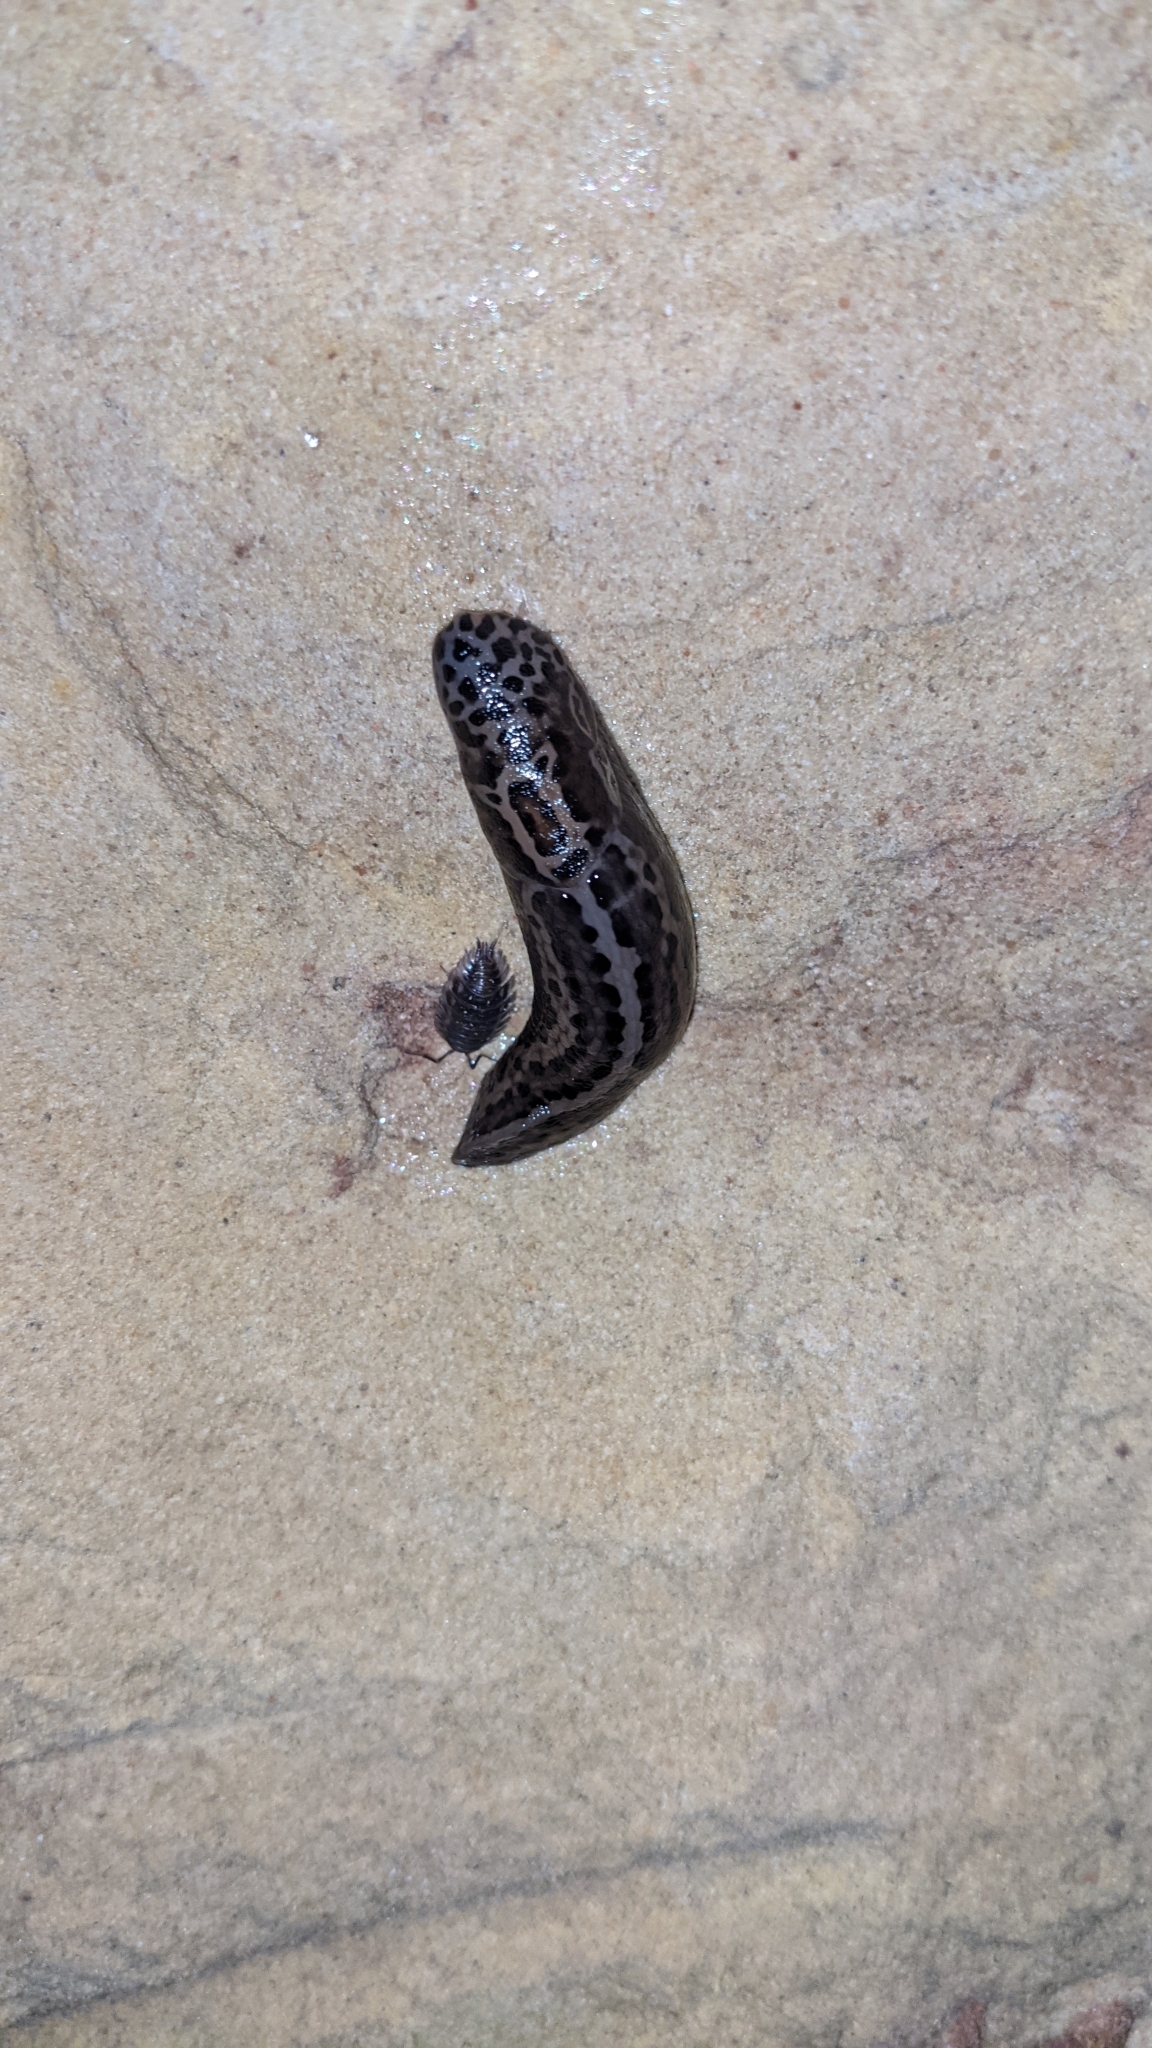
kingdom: Animalia
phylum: Mollusca
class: Gastropoda
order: Stylommatophora
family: Limacidae
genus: Limax
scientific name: Limax maximus
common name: Great grey slug
